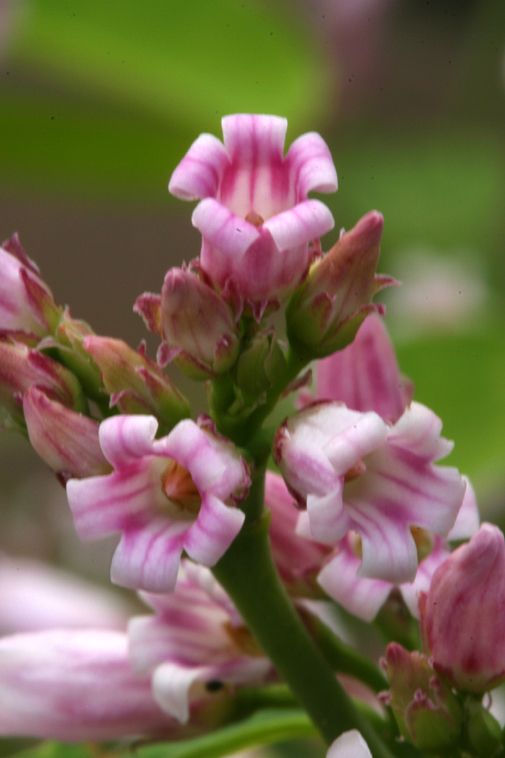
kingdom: Plantae
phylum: Tracheophyta
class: Magnoliopsida
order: Gentianales
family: Apocynaceae
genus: Apocynum
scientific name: Apocynum androsaemifolium
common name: Spreading dogbane
